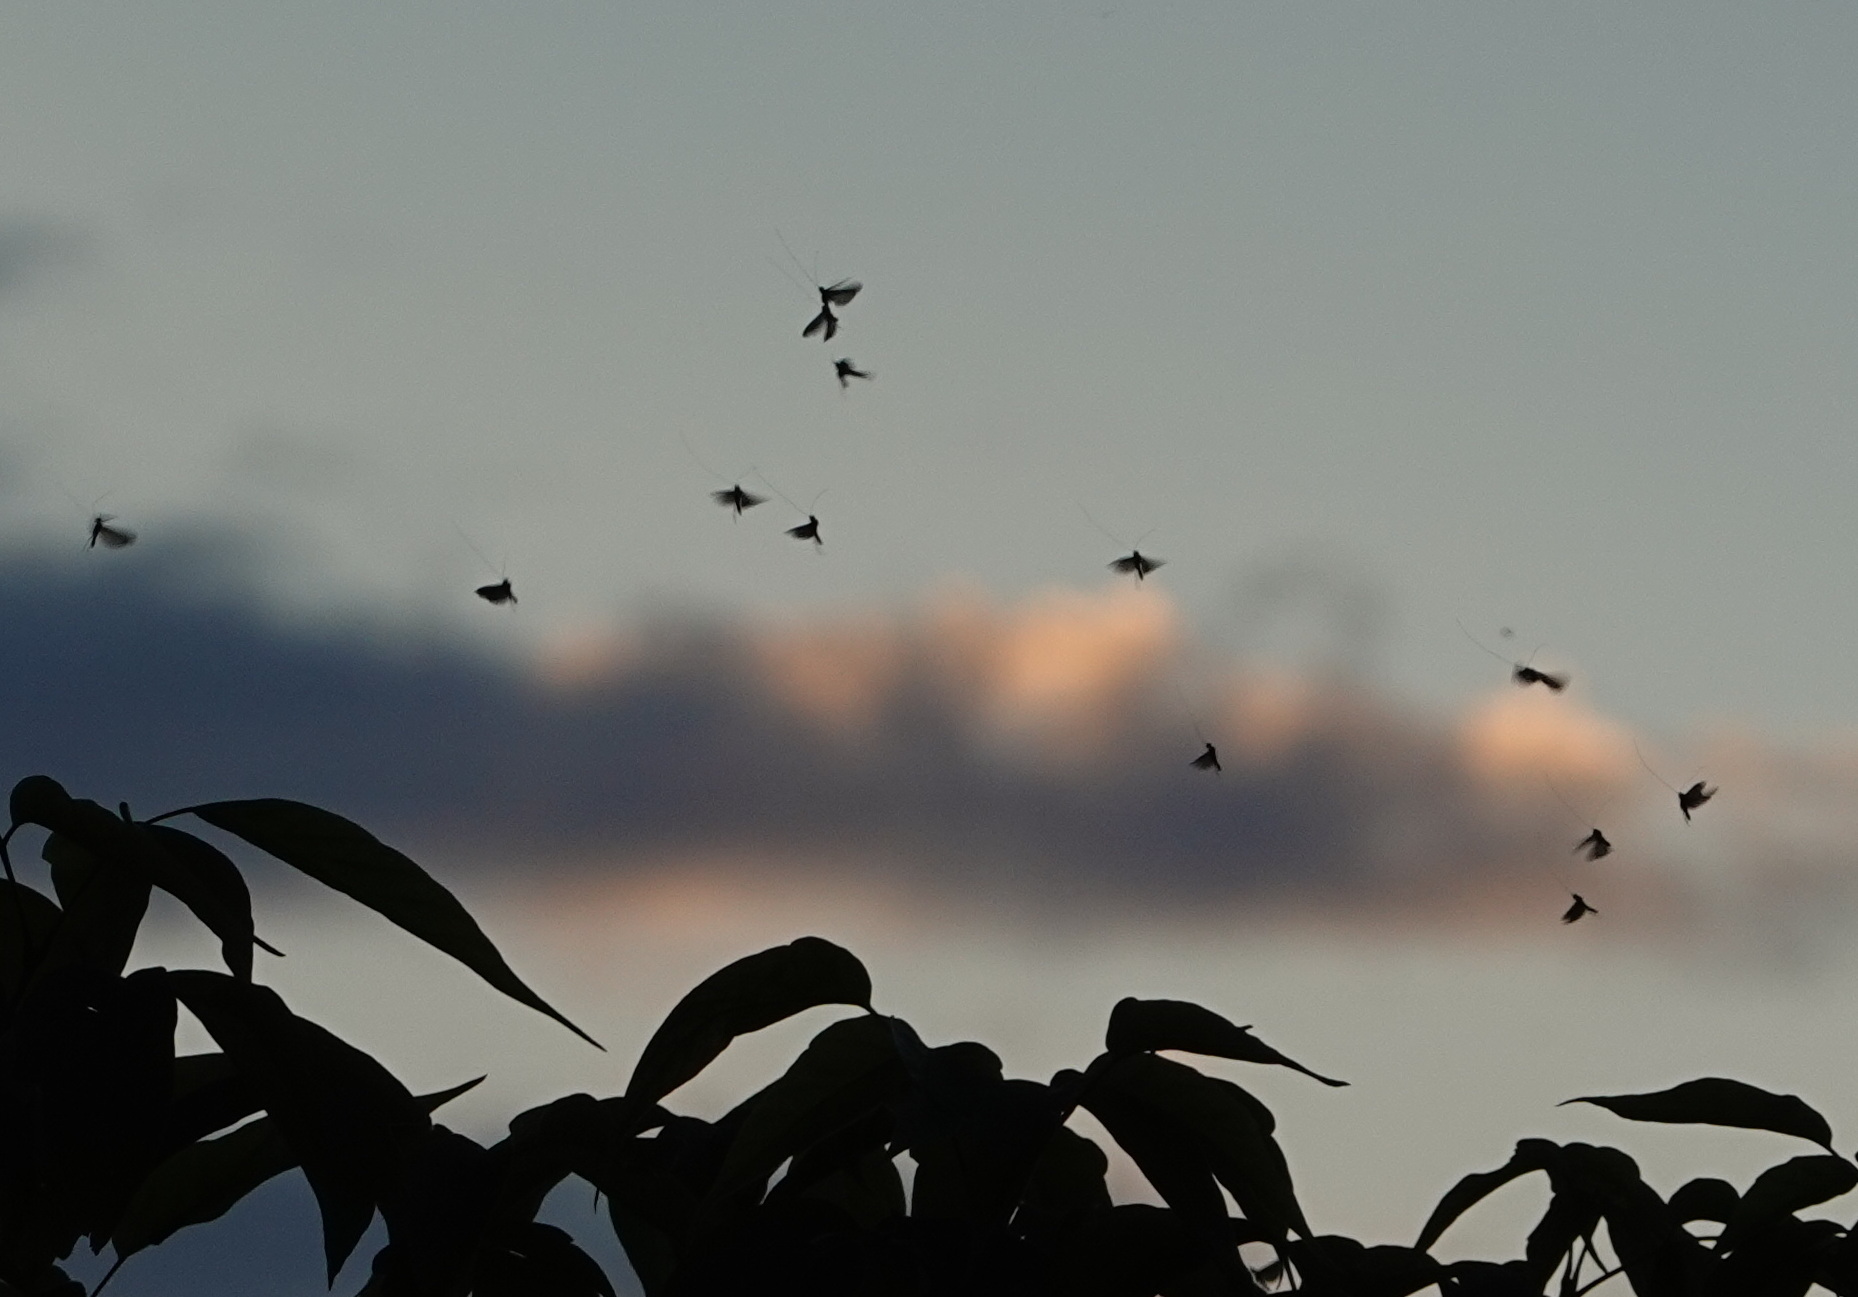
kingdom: Animalia
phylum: Arthropoda
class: Insecta
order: Lepidoptera
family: Adelidae
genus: Adela
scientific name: Adela viridella
